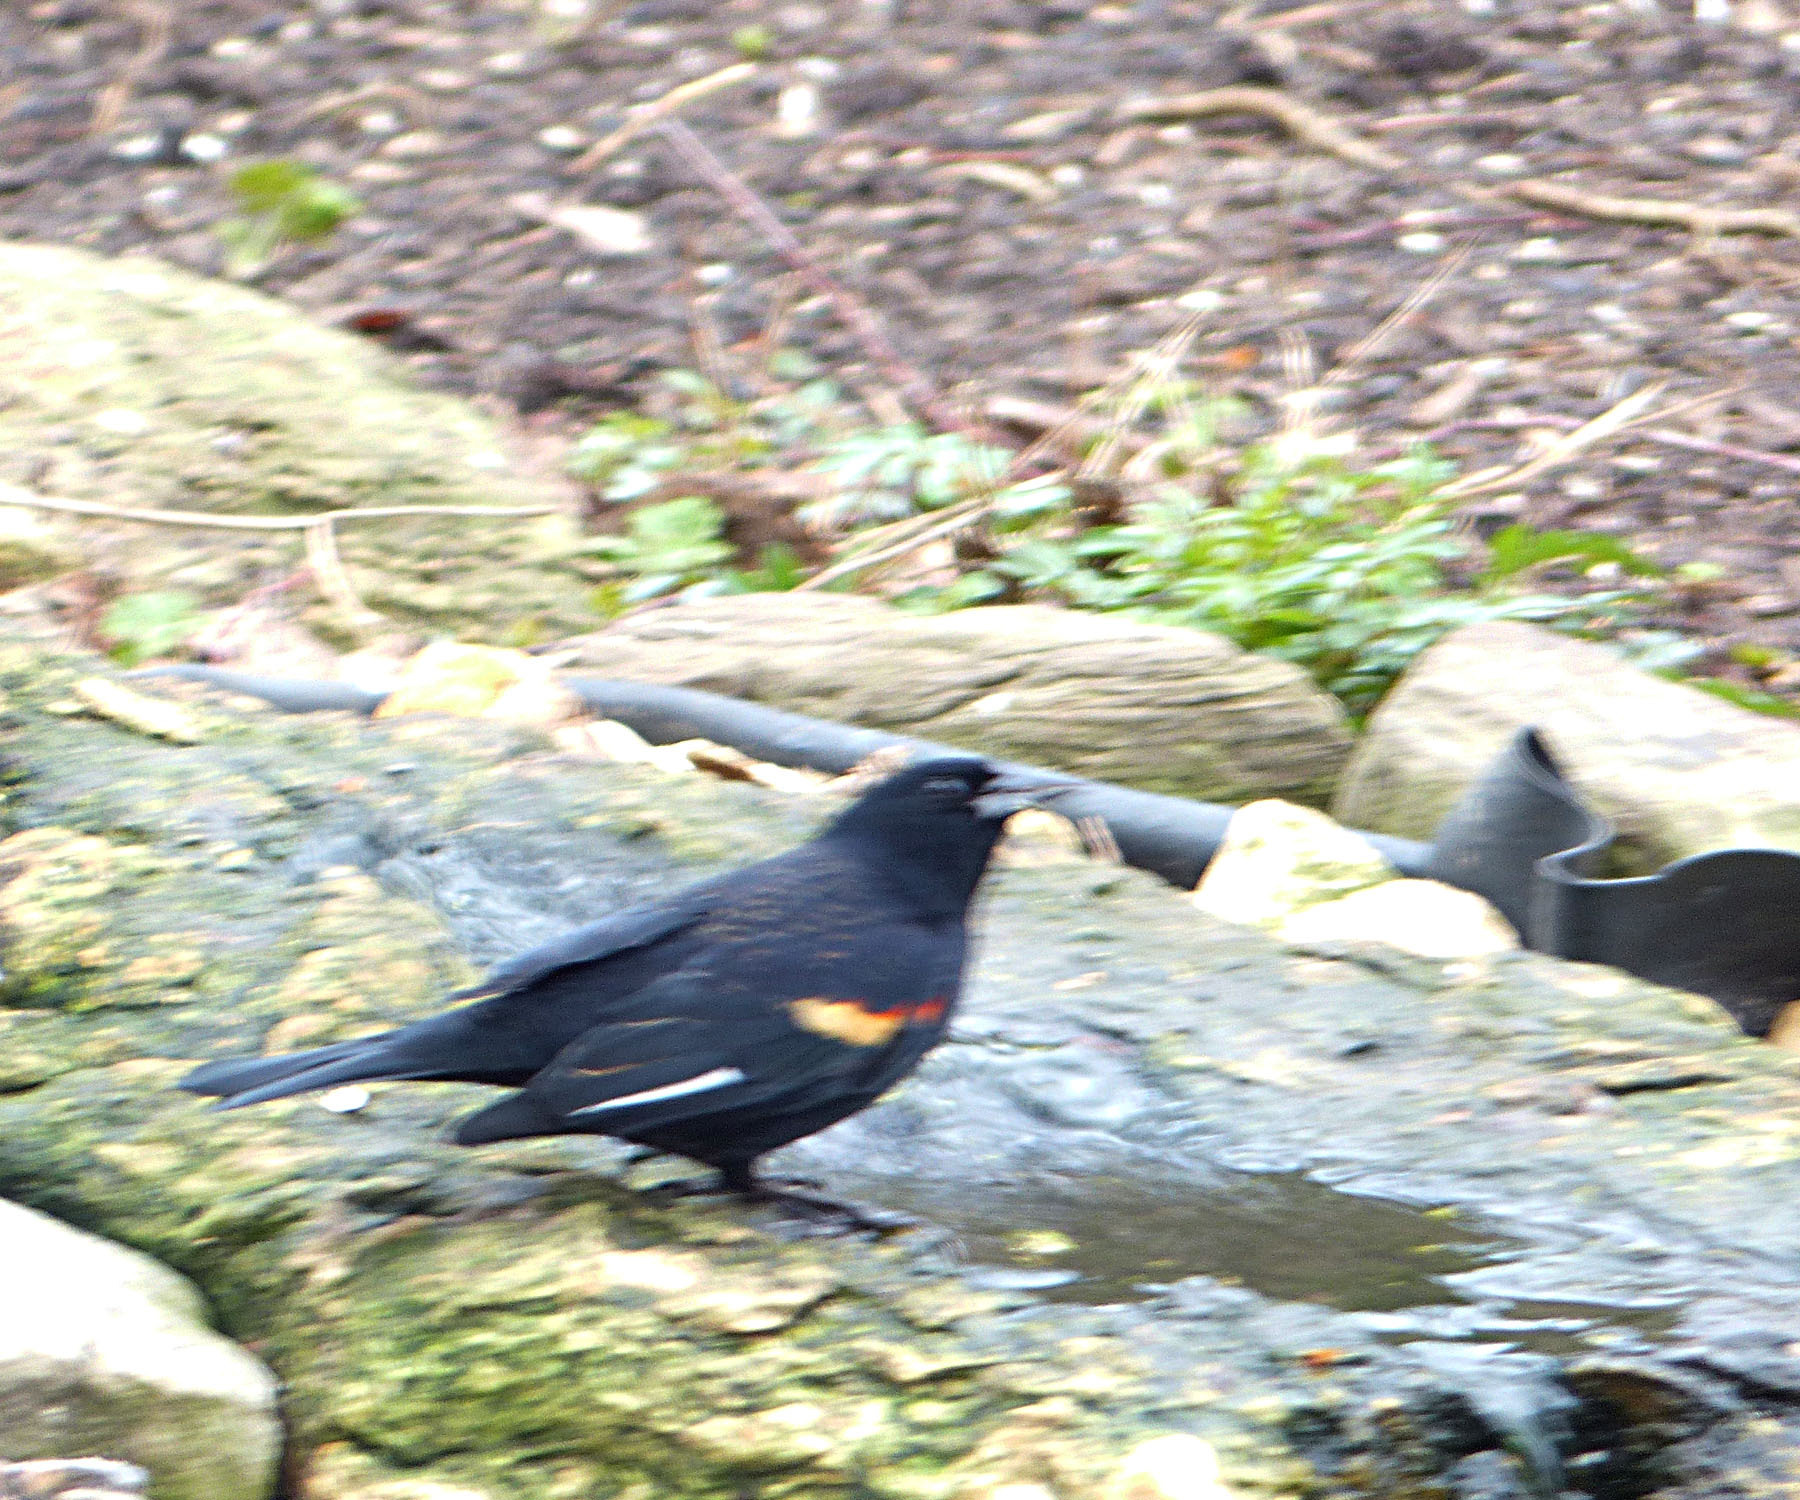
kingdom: Animalia
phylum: Chordata
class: Aves
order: Passeriformes
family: Icteridae
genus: Agelaius
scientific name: Agelaius phoeniceus
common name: Red-winged blackbird
